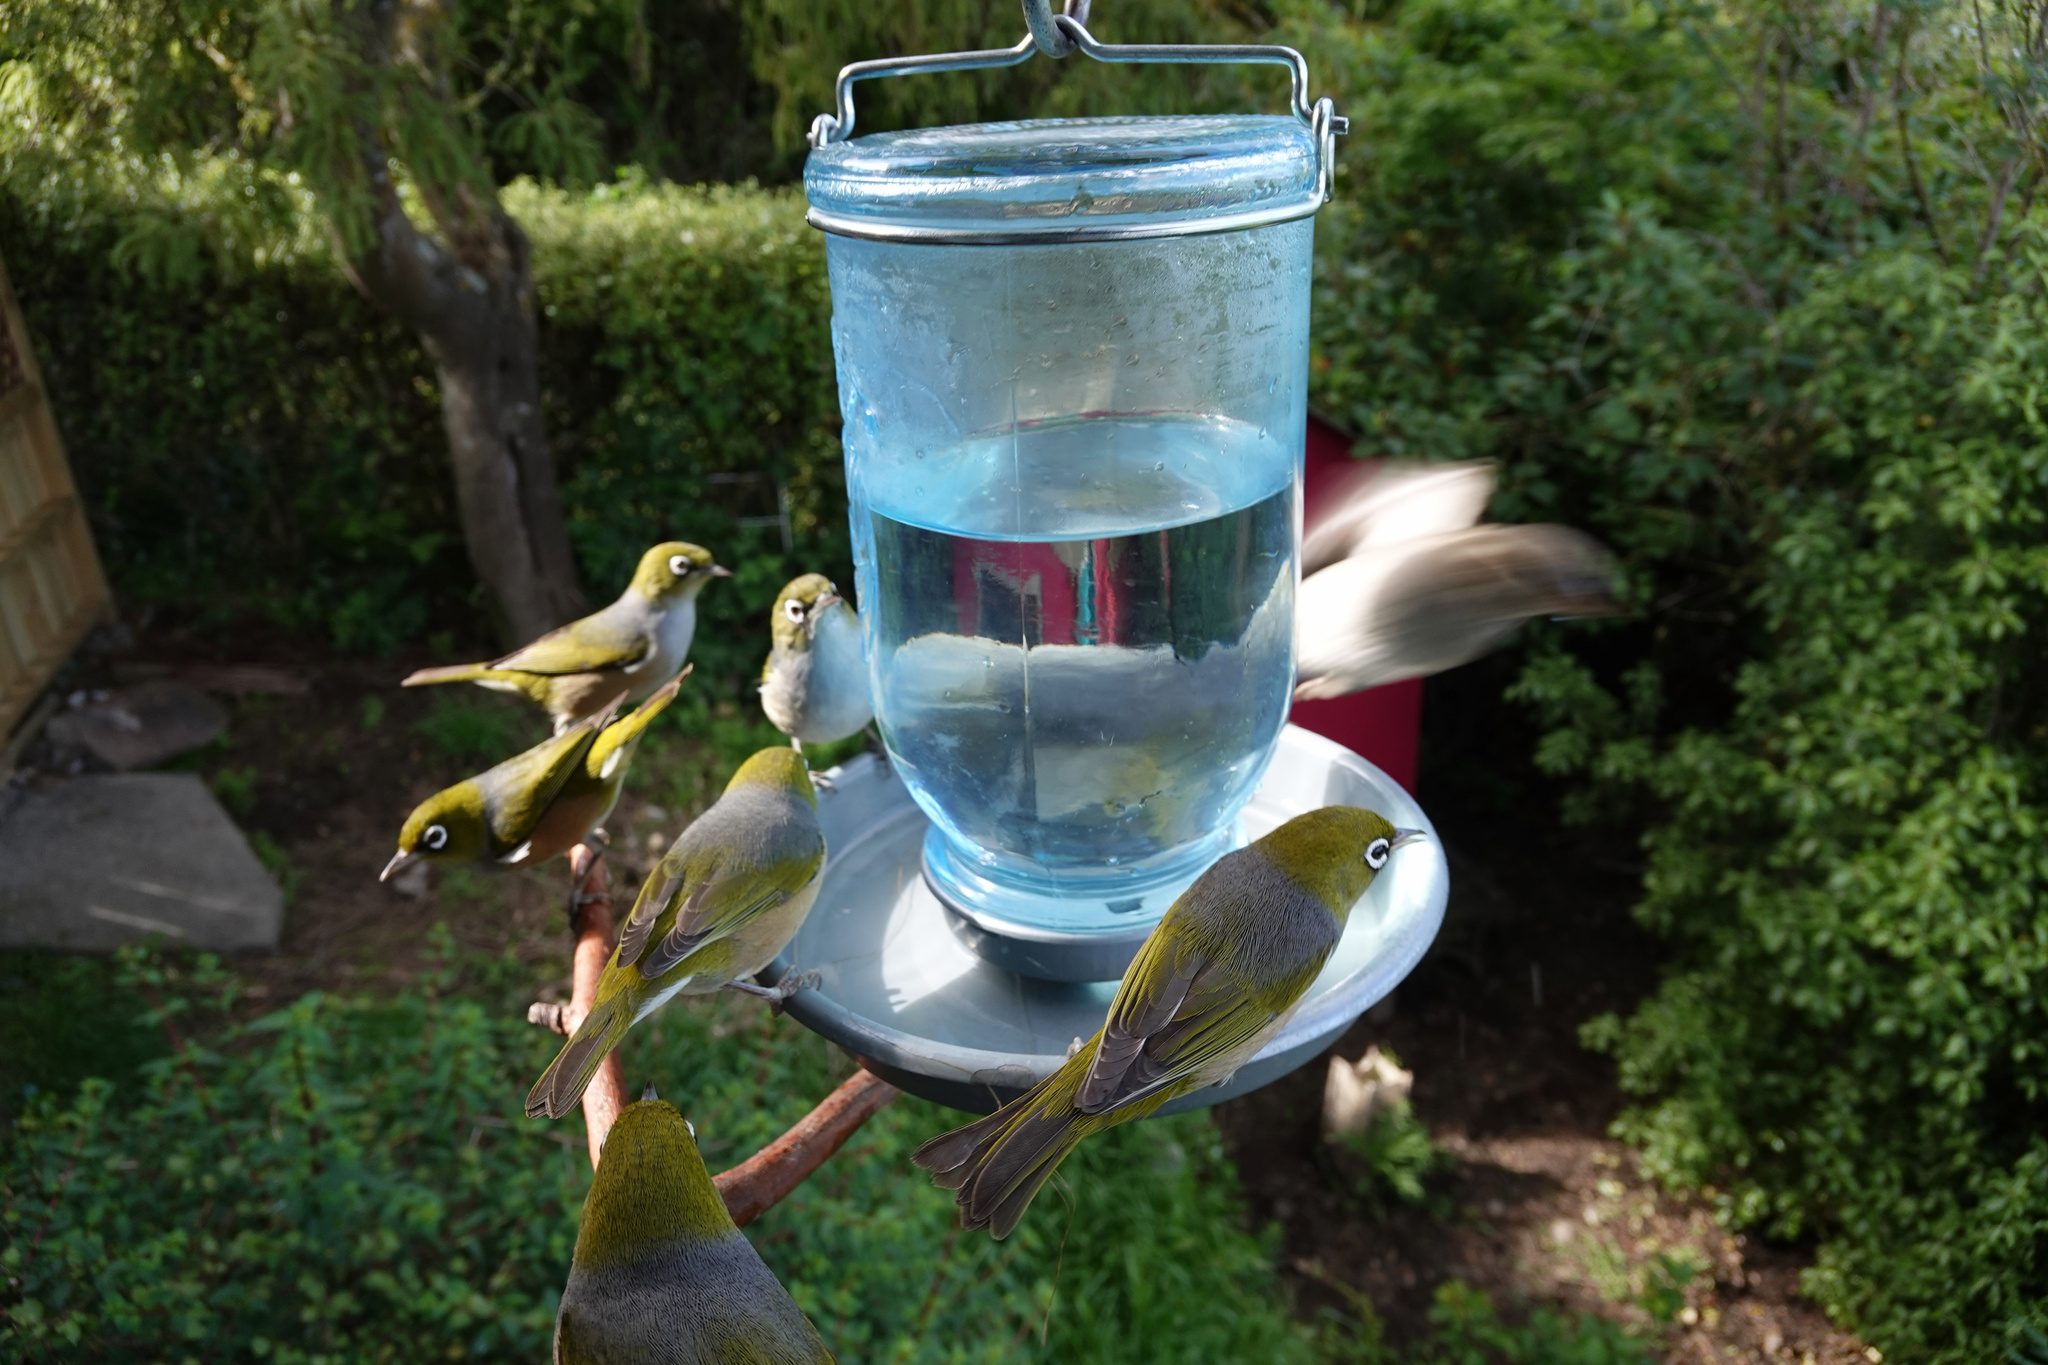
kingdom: Animalia
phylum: Chordata
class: Aves
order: Passeriformes
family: Zosteropidae
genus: Zosterops
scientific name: Zosterops lateralis
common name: Silvereye
